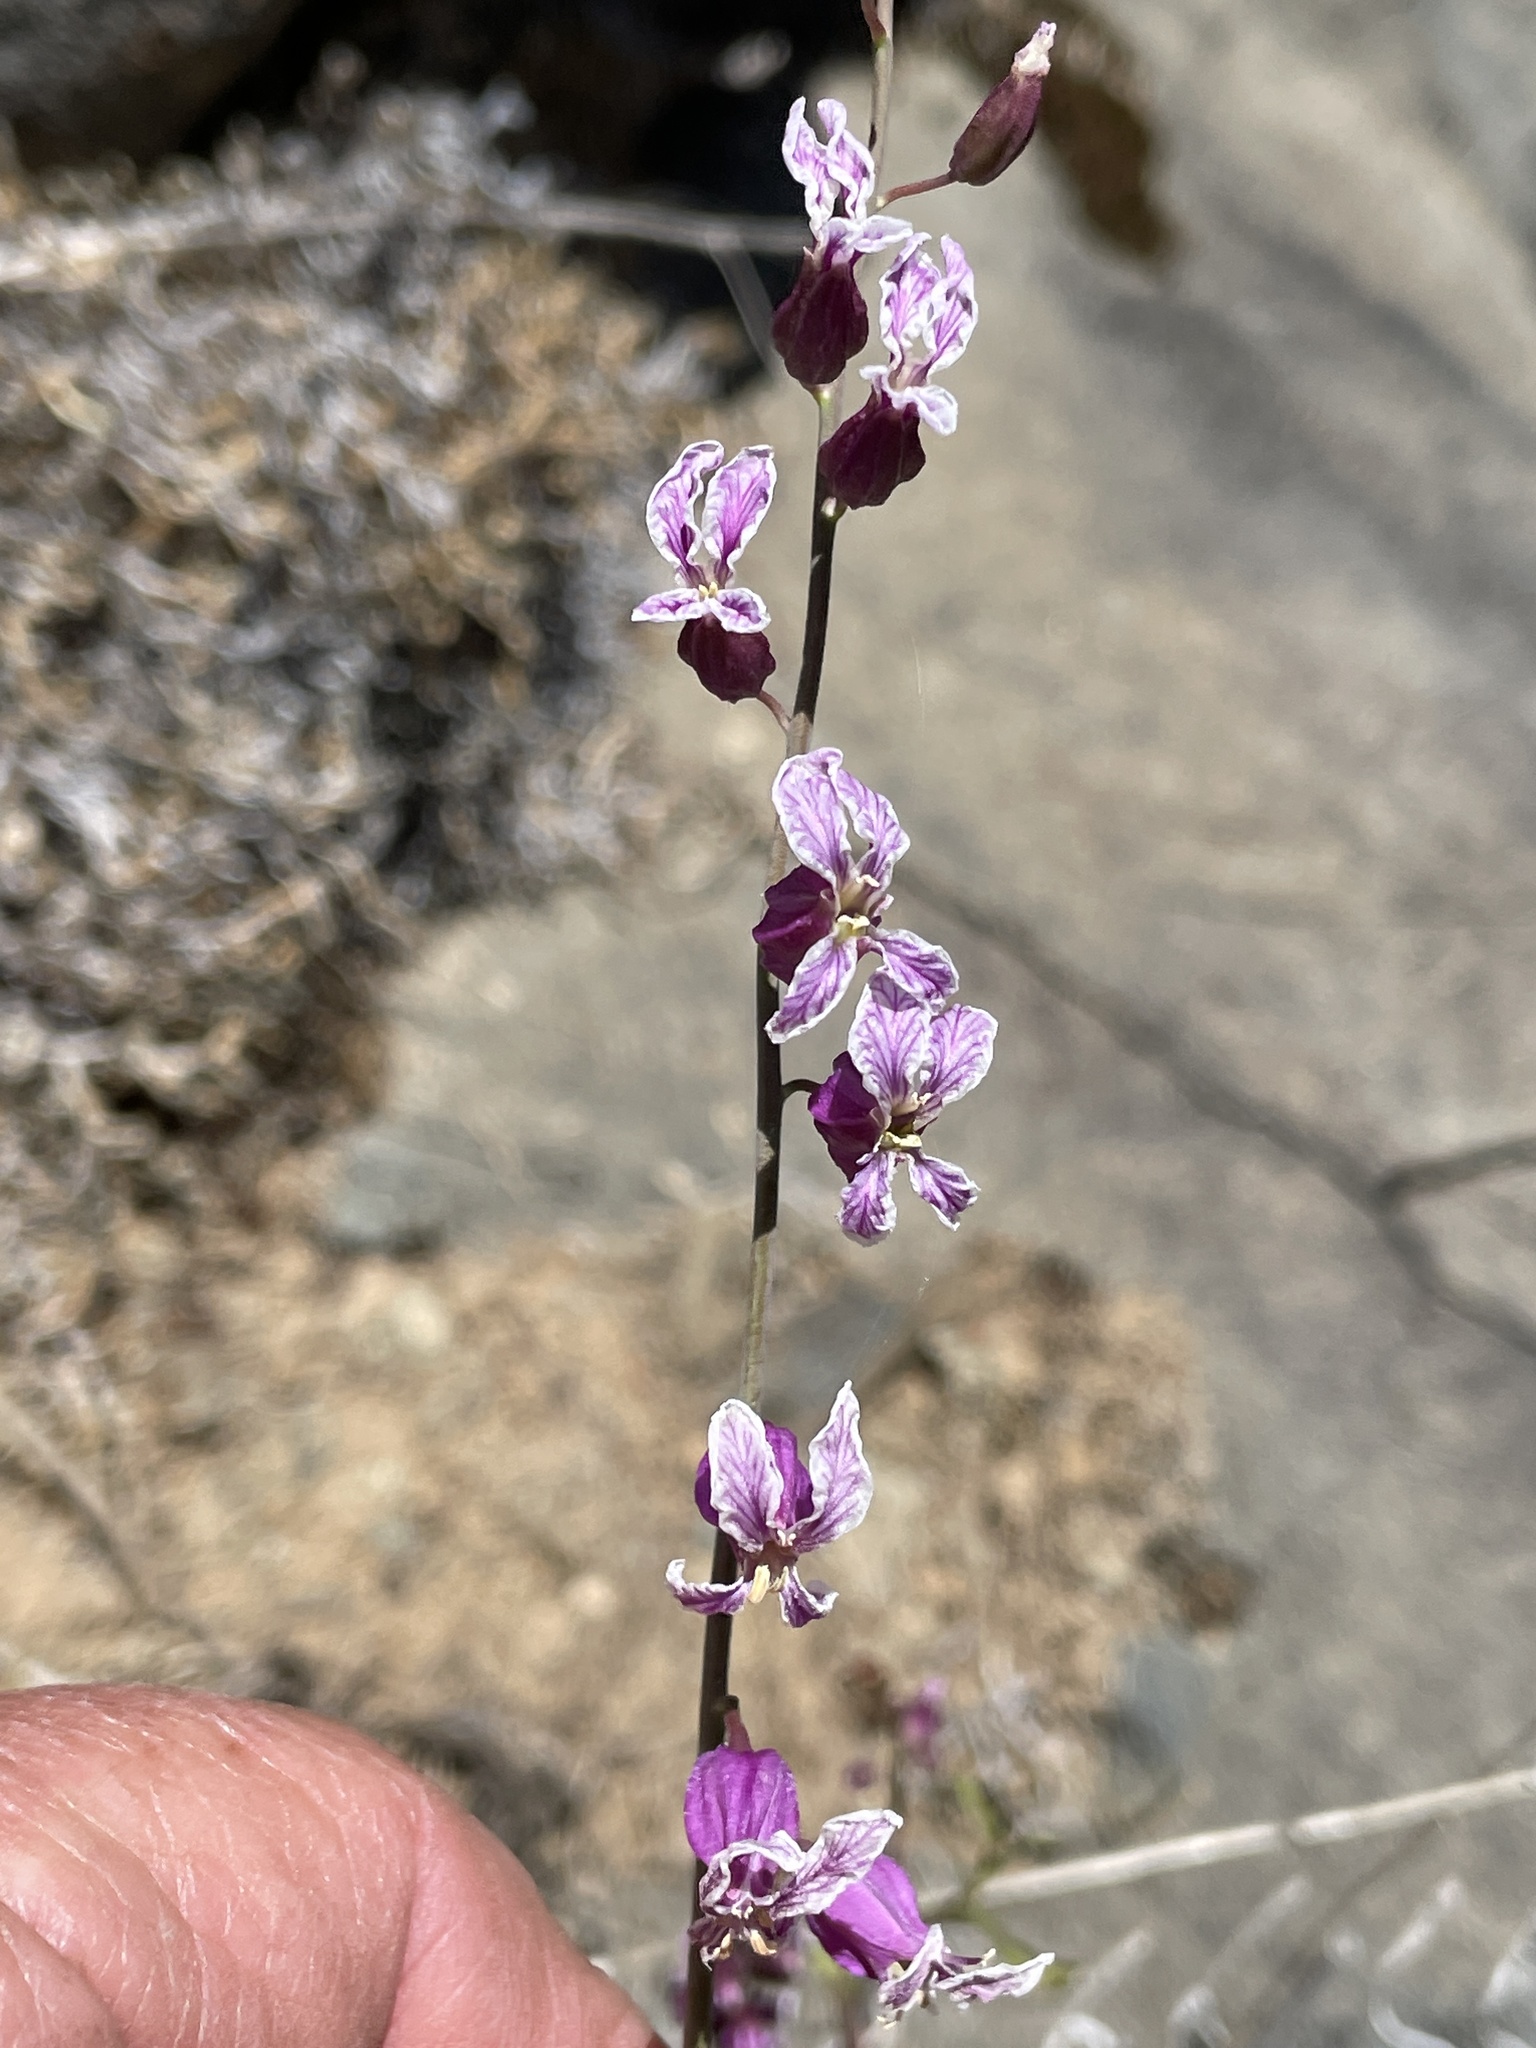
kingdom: Plantae
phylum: Tracheophyta
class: Magnoliopsida
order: Brassicales
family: Brassicaceae
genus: Streptanthus
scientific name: Streptanthus glandulosus
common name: Jewel-flower
